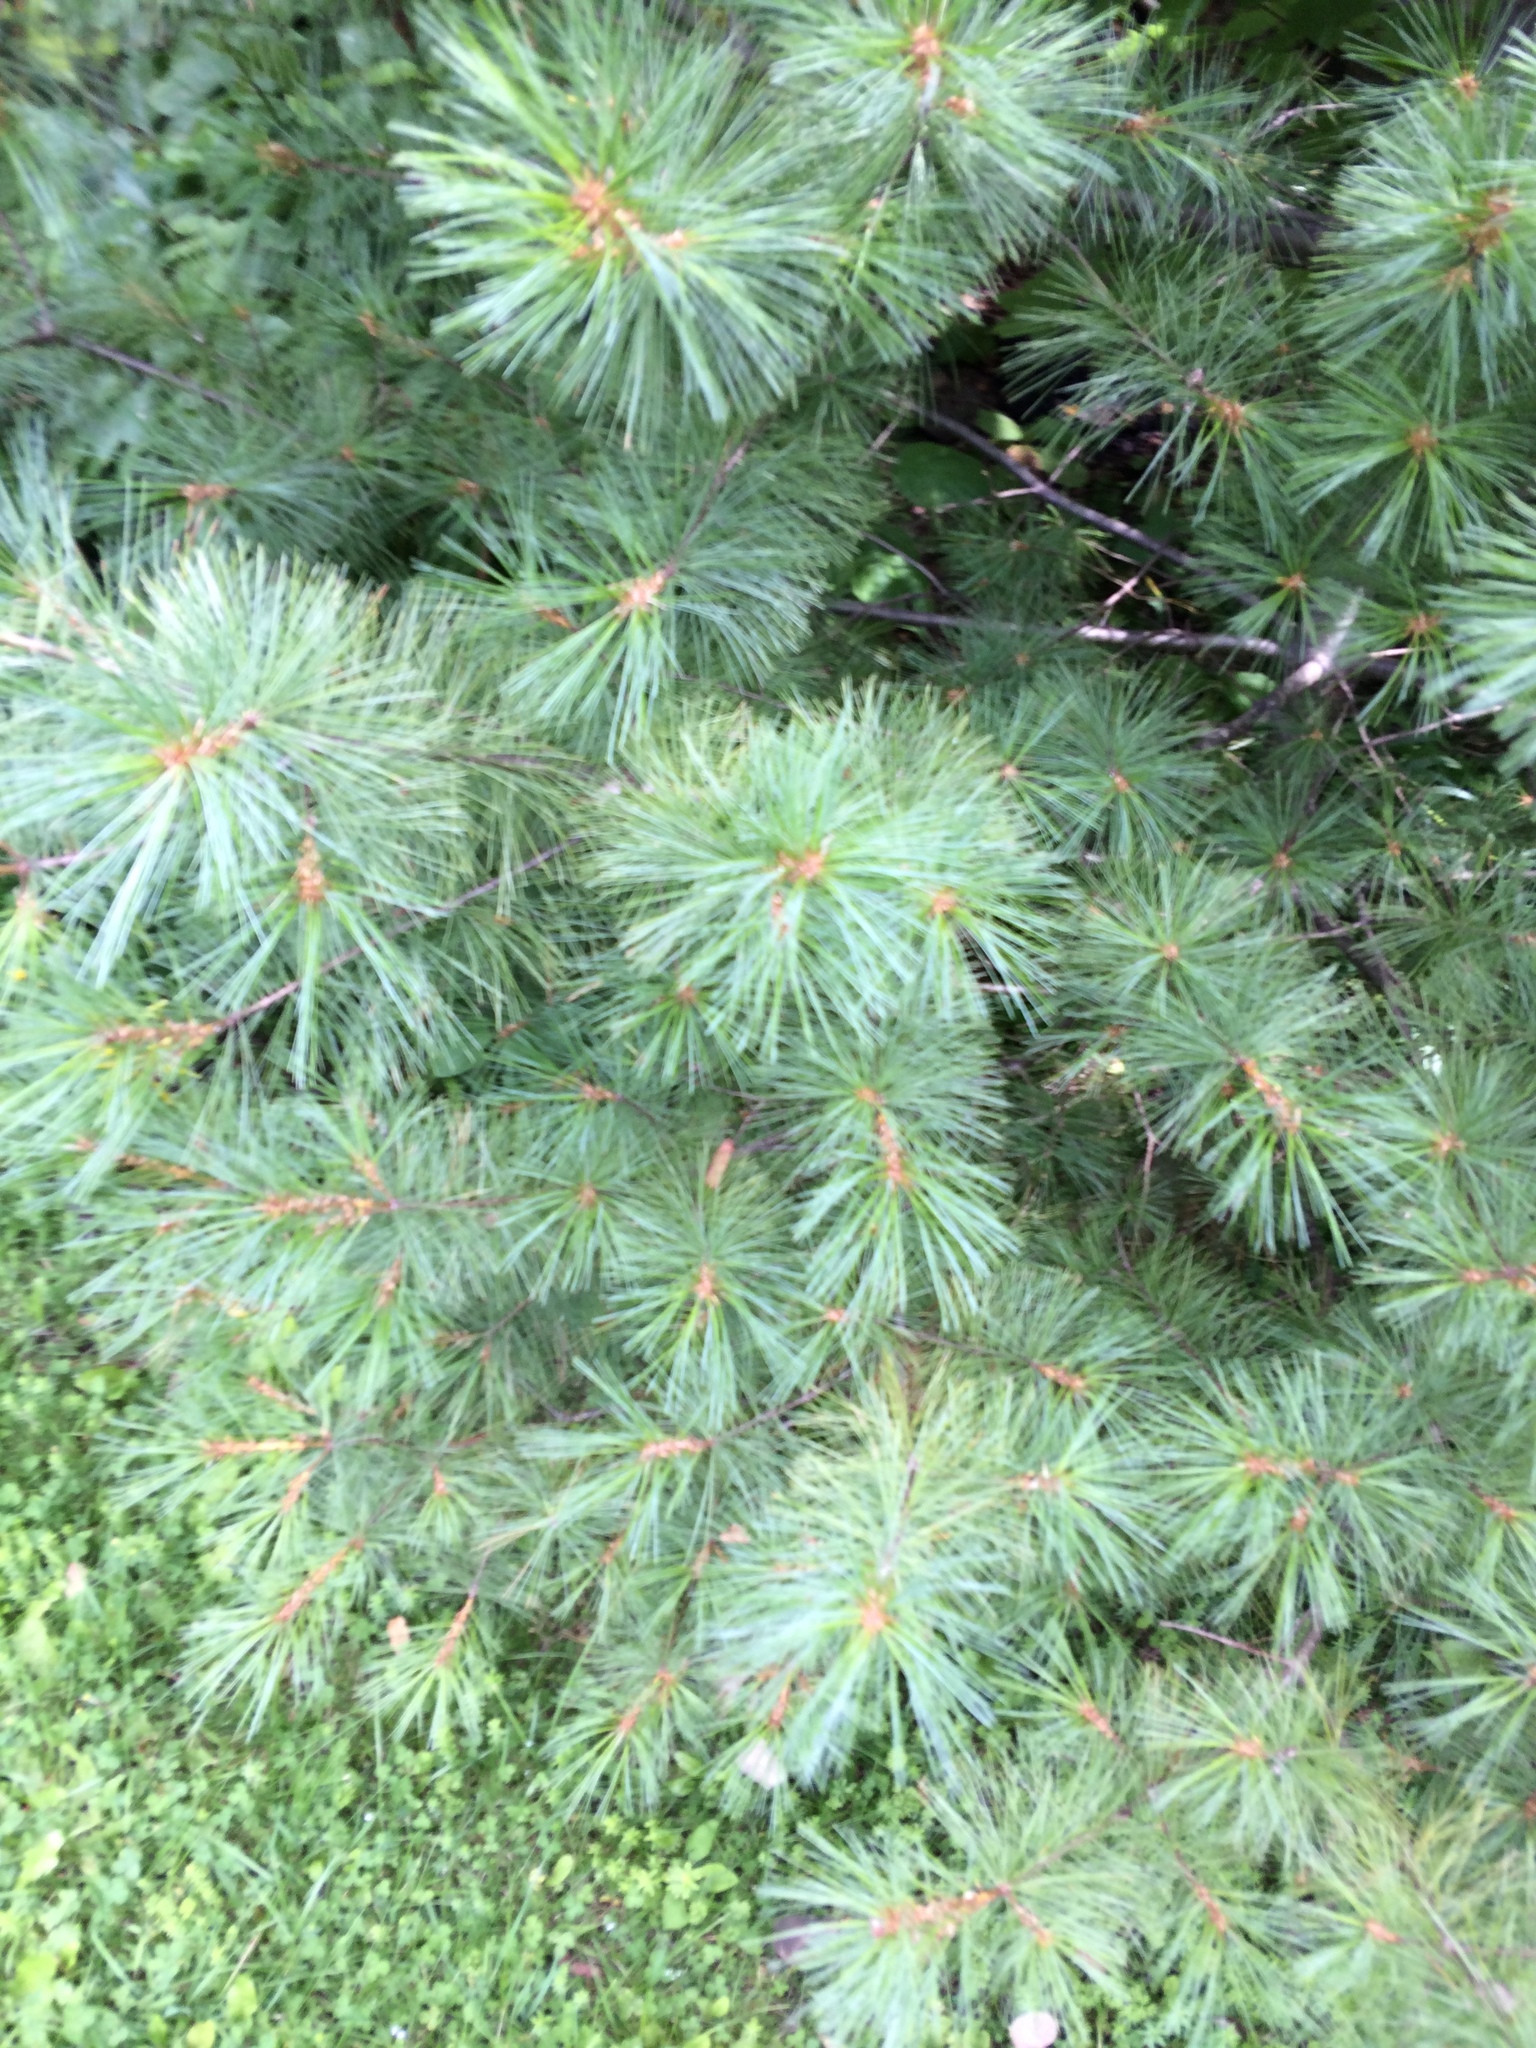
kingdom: Plantae
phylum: Tracheophyta
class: Pinopsida
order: Pinales
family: Pinaceae
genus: Pinus
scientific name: Pinus strobus
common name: Weymouth pine
